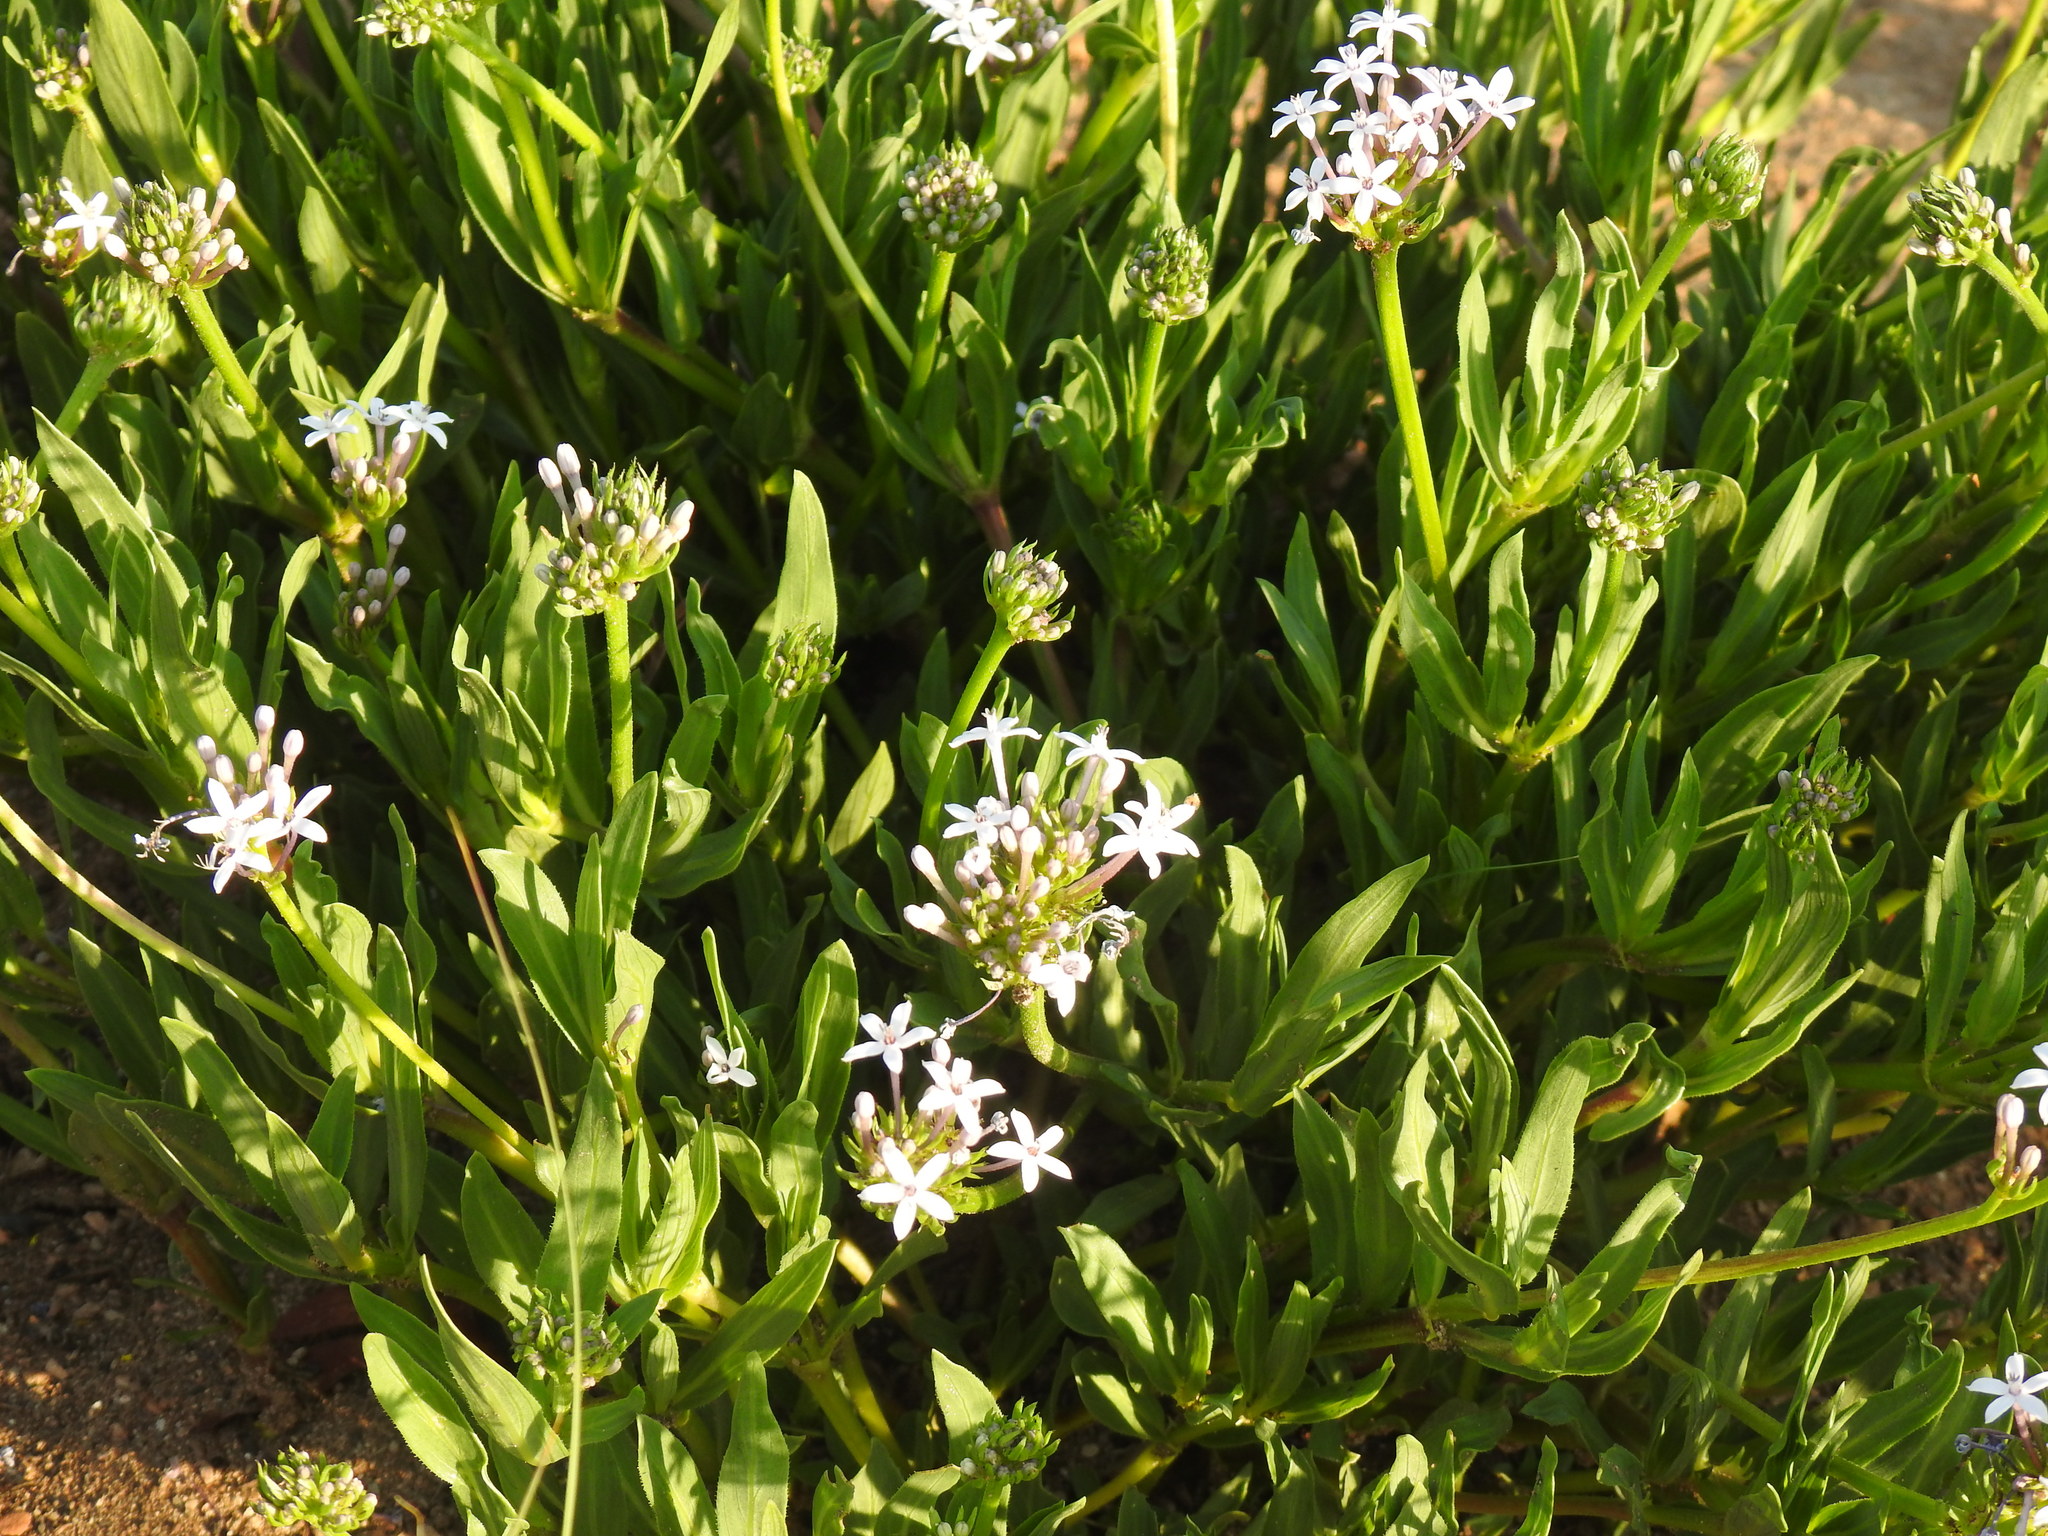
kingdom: Plantae
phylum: Tracheophyta
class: Magnoliopsida
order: Gentianales
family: Rubiaceae
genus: Pentanisia
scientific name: Pentanisia angustifolia
